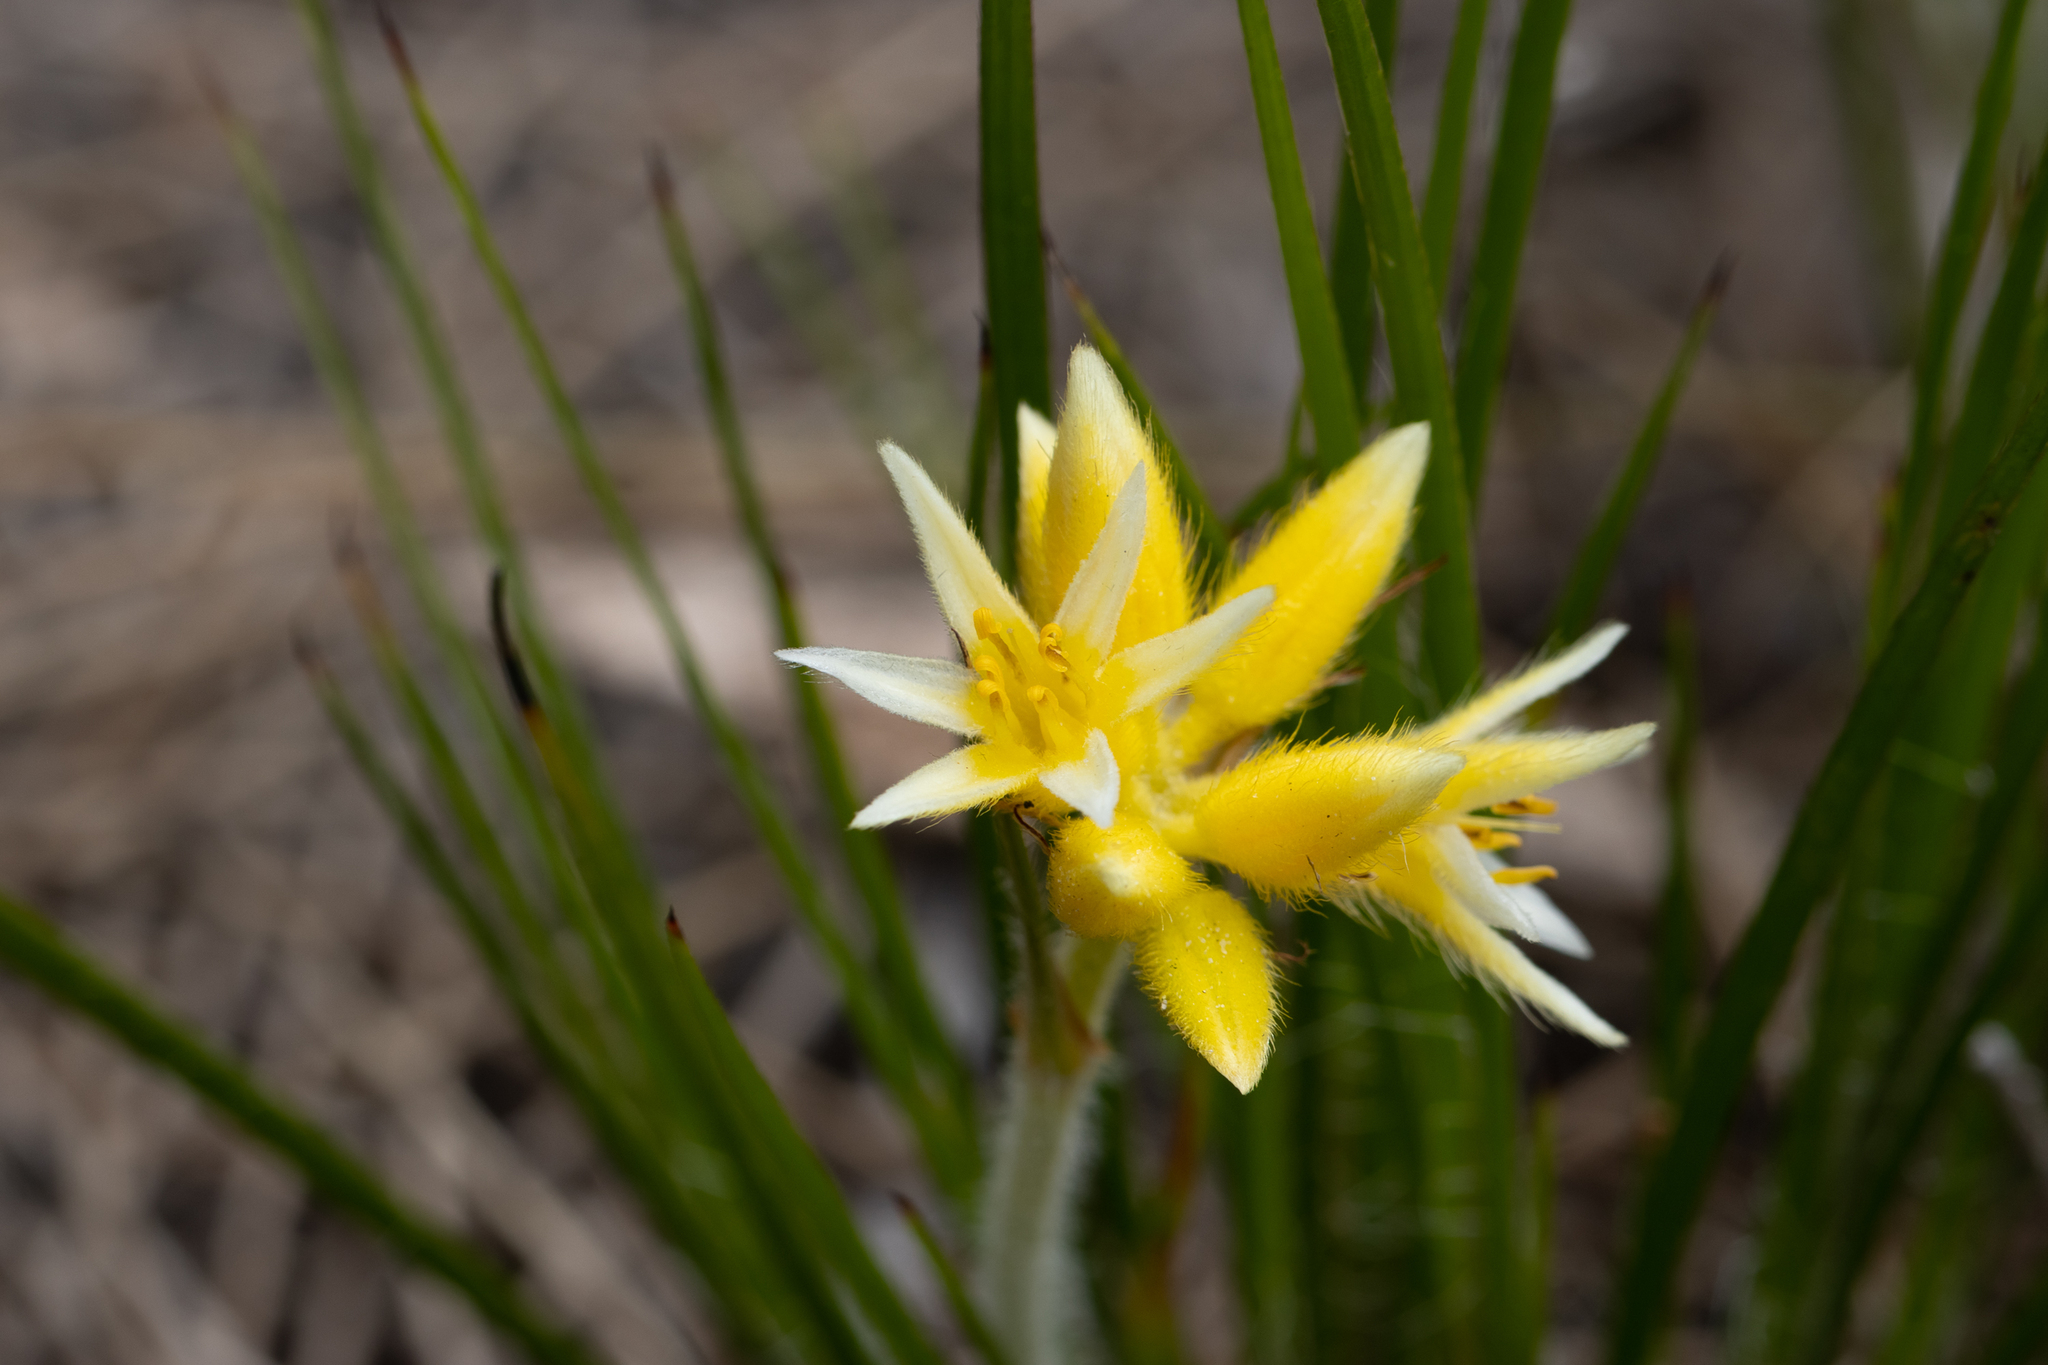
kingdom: Plantae
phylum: Tracheophyta
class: Liliopsida
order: Commelinales
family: Haemodoraceae
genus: Conostylis
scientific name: Conostylis setigera
